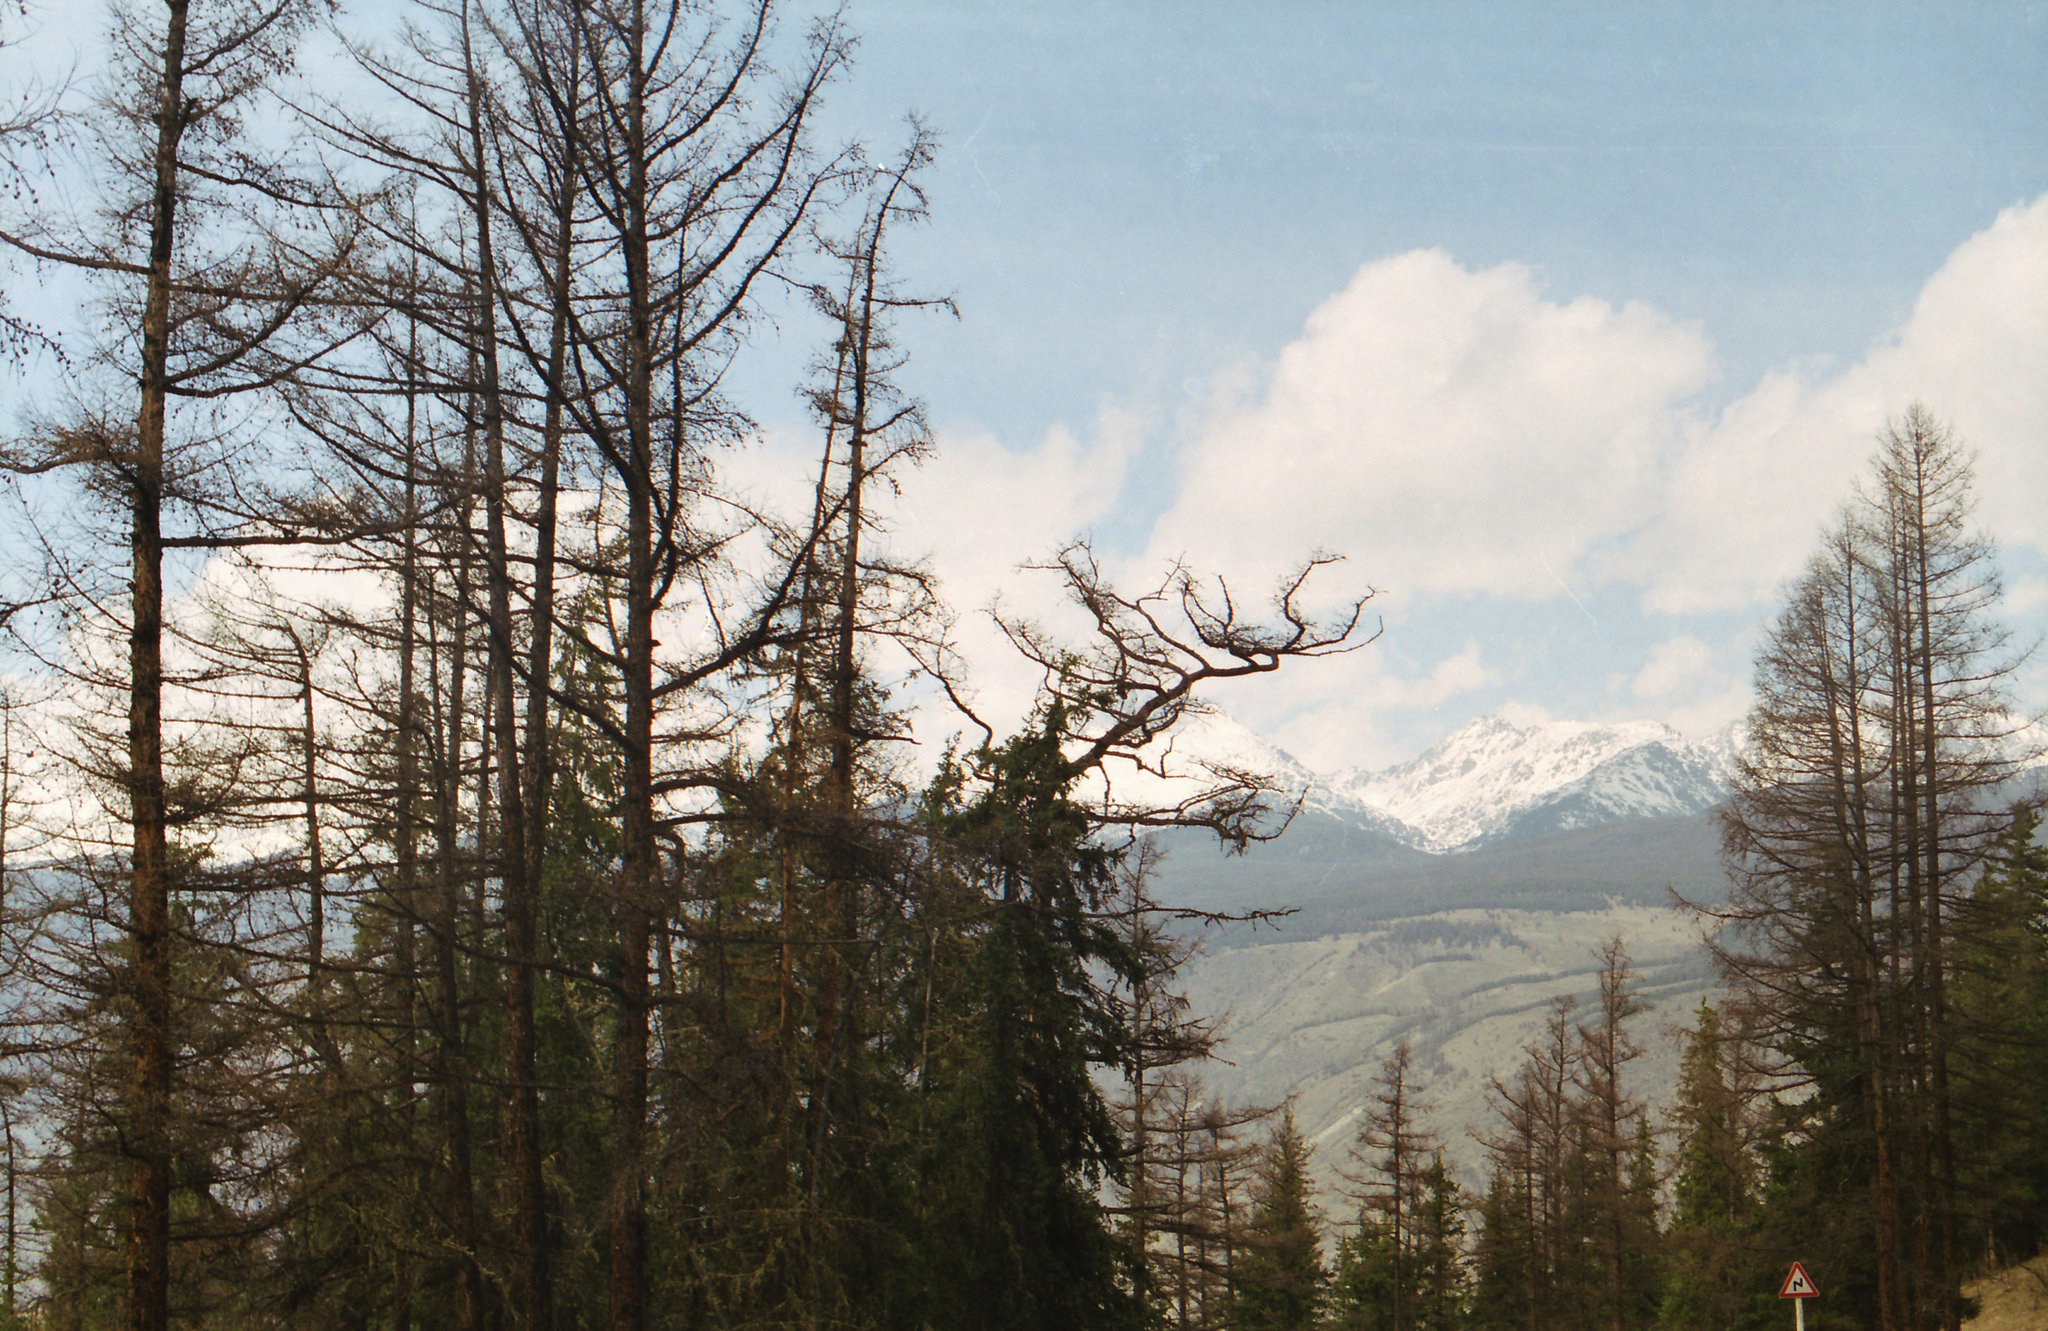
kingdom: Plantae
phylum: Tracheophyta
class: Pinopsida
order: Pinales
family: Pinaceae
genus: Larix
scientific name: Larix sibirica
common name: Siberian larch
